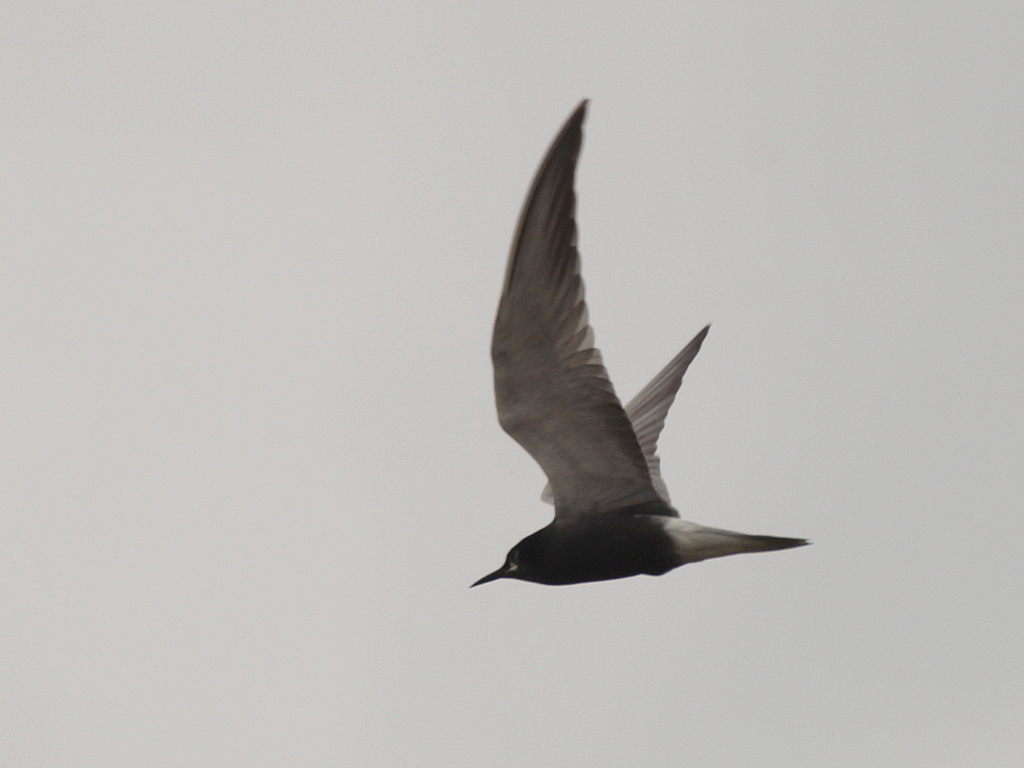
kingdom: Animalia
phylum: Chordata
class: Aves
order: Charadriiformes
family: Laridae
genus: Chlidonias
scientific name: Chlidonias niger
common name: Black tern
